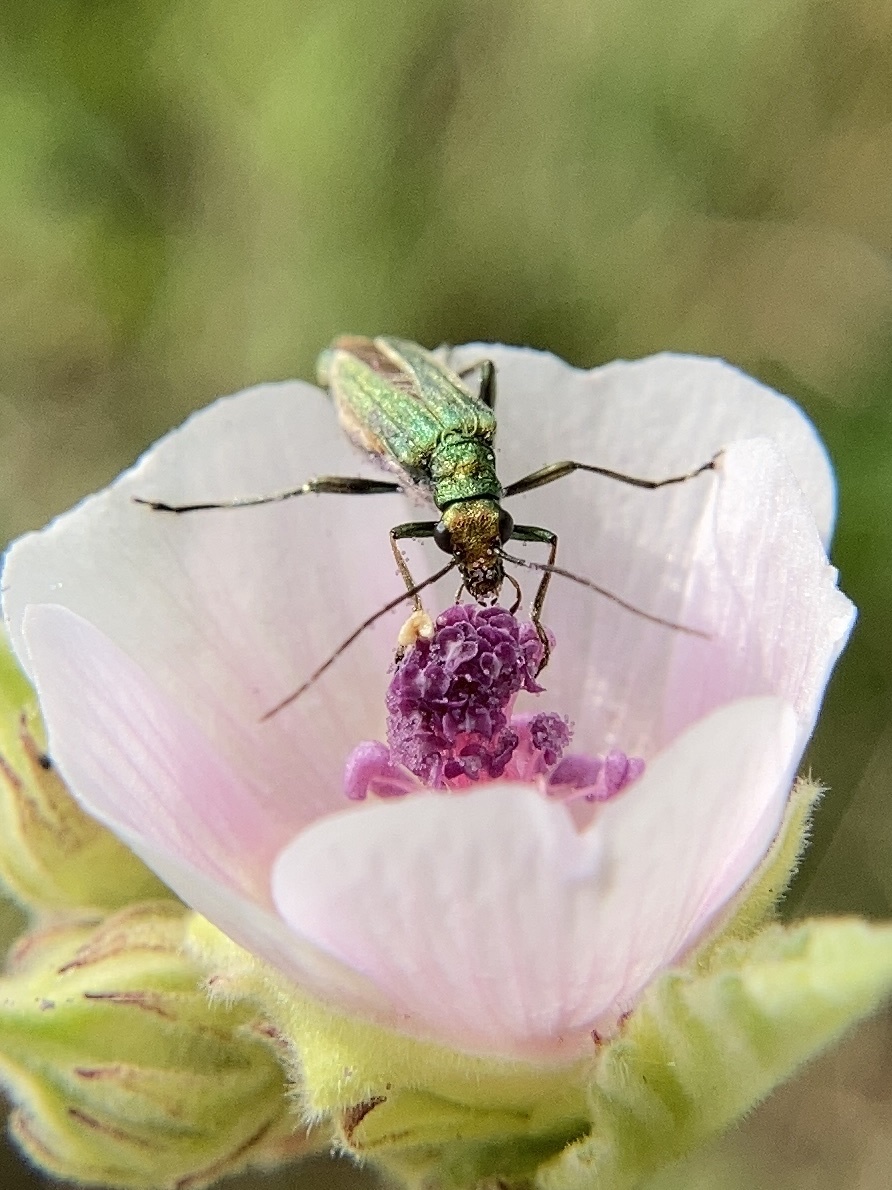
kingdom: Animalia
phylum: Arthropoda
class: Insecta
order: Coleoptera
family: Oedemeridae
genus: Oedemera
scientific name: Oedemera nobilis
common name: Swollen-thighed beetle
